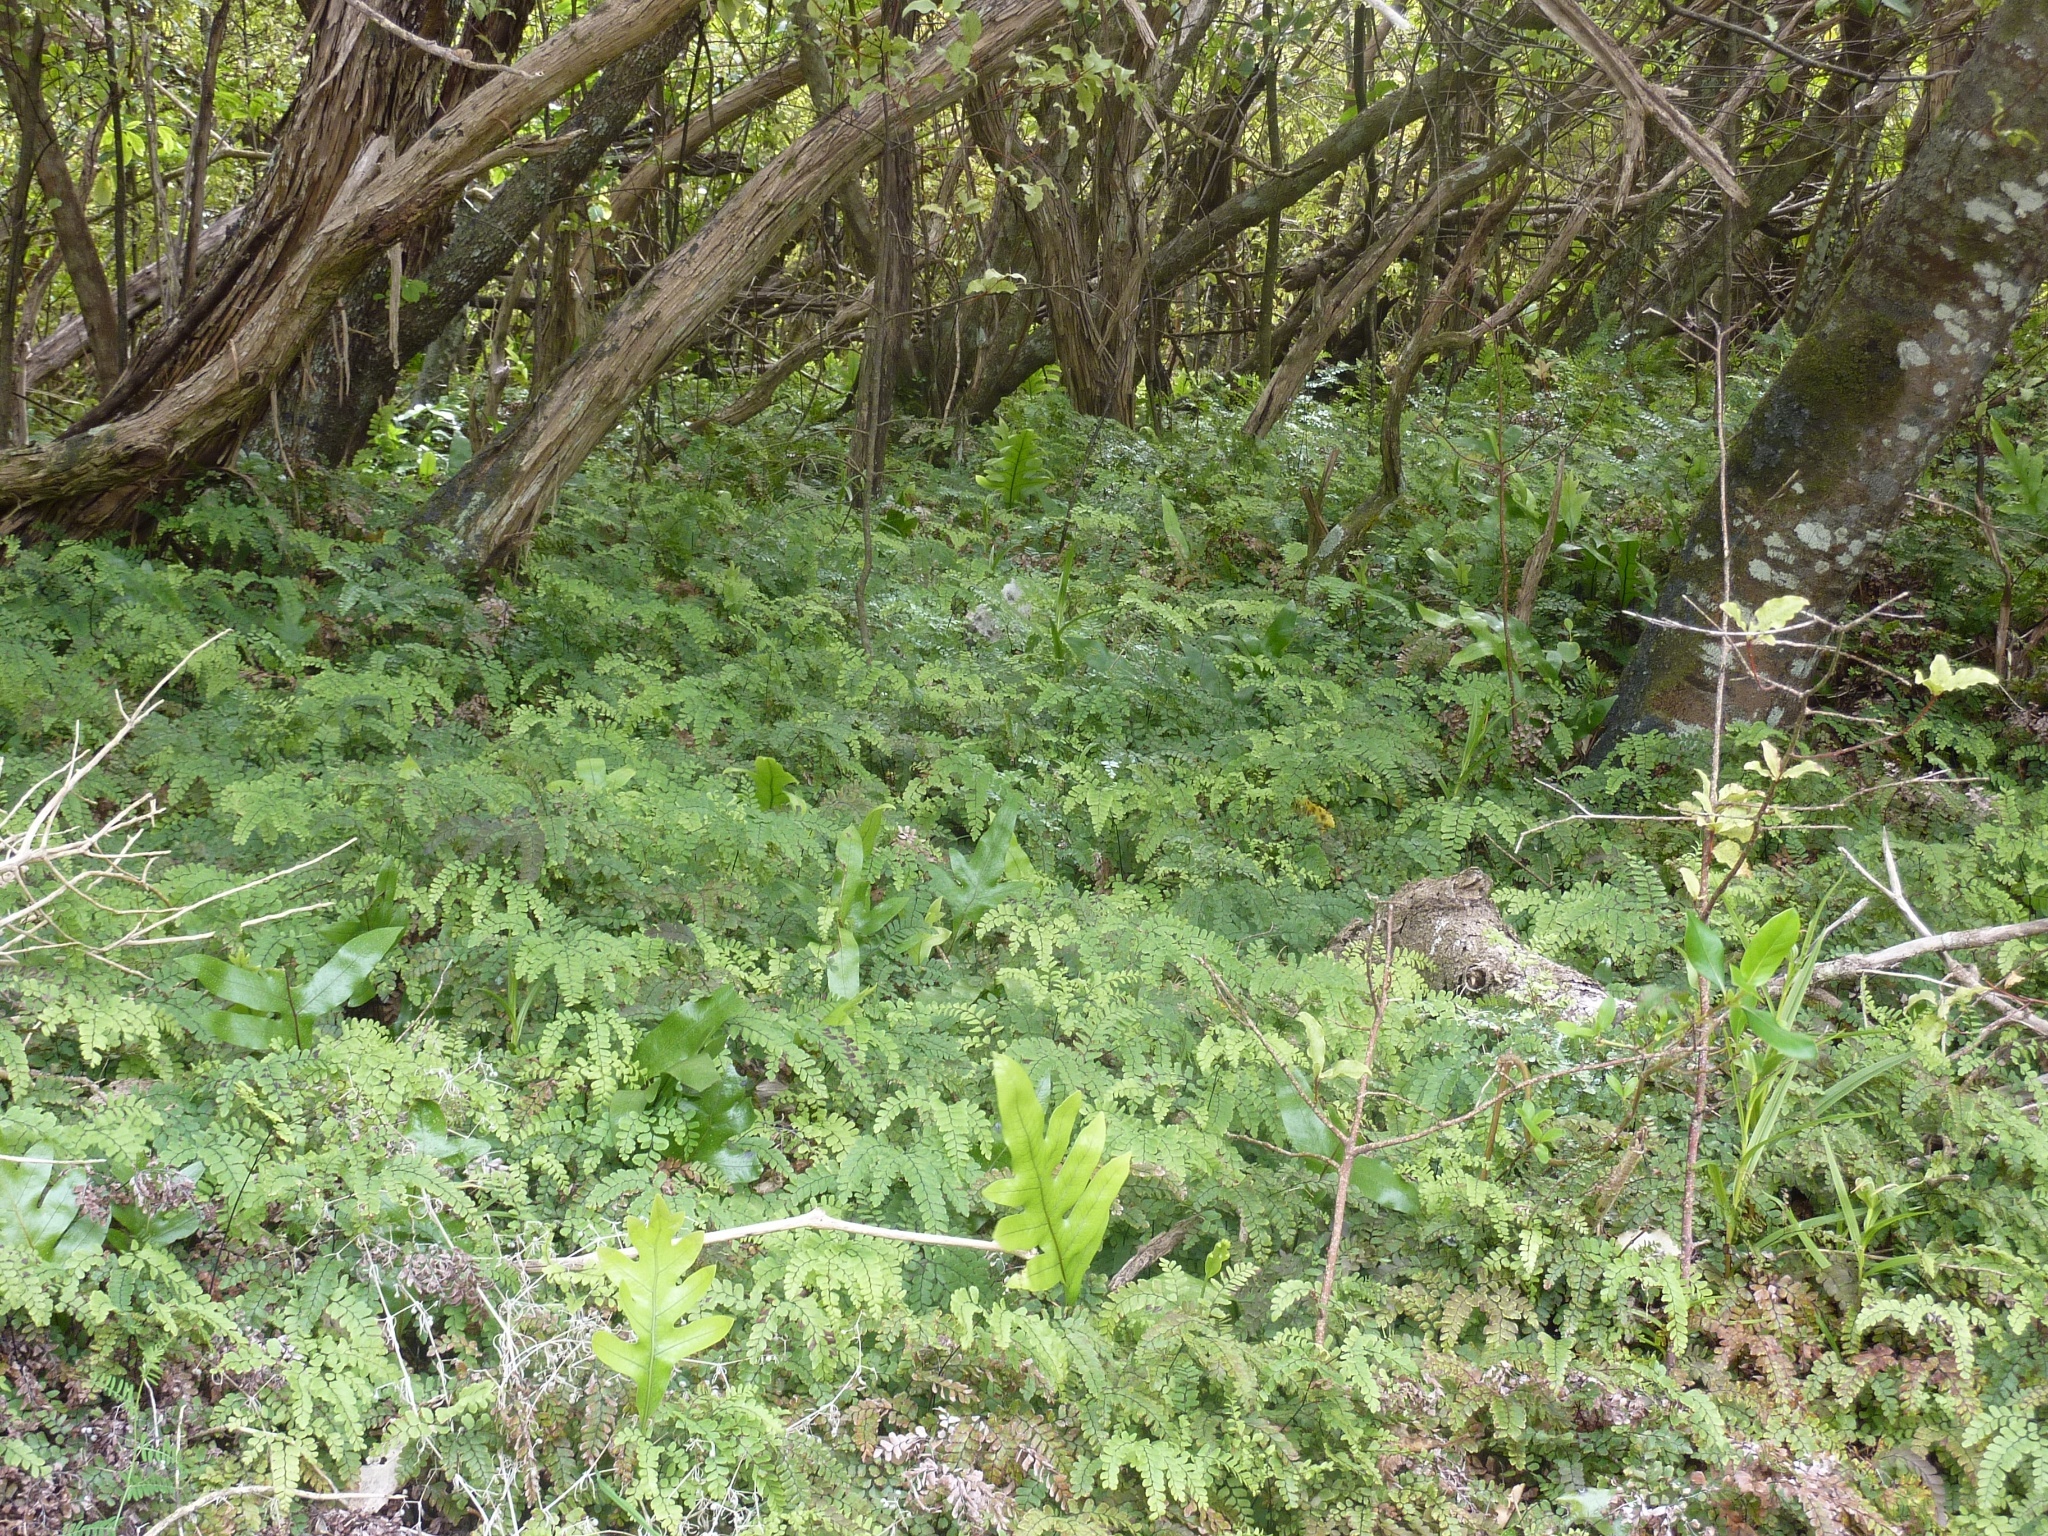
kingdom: Plantae
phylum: Tracheophyta
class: Polypodiopsida
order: Polypodiales
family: Pteridaceae
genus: Adiantum
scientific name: Adiantum cunninghamii
